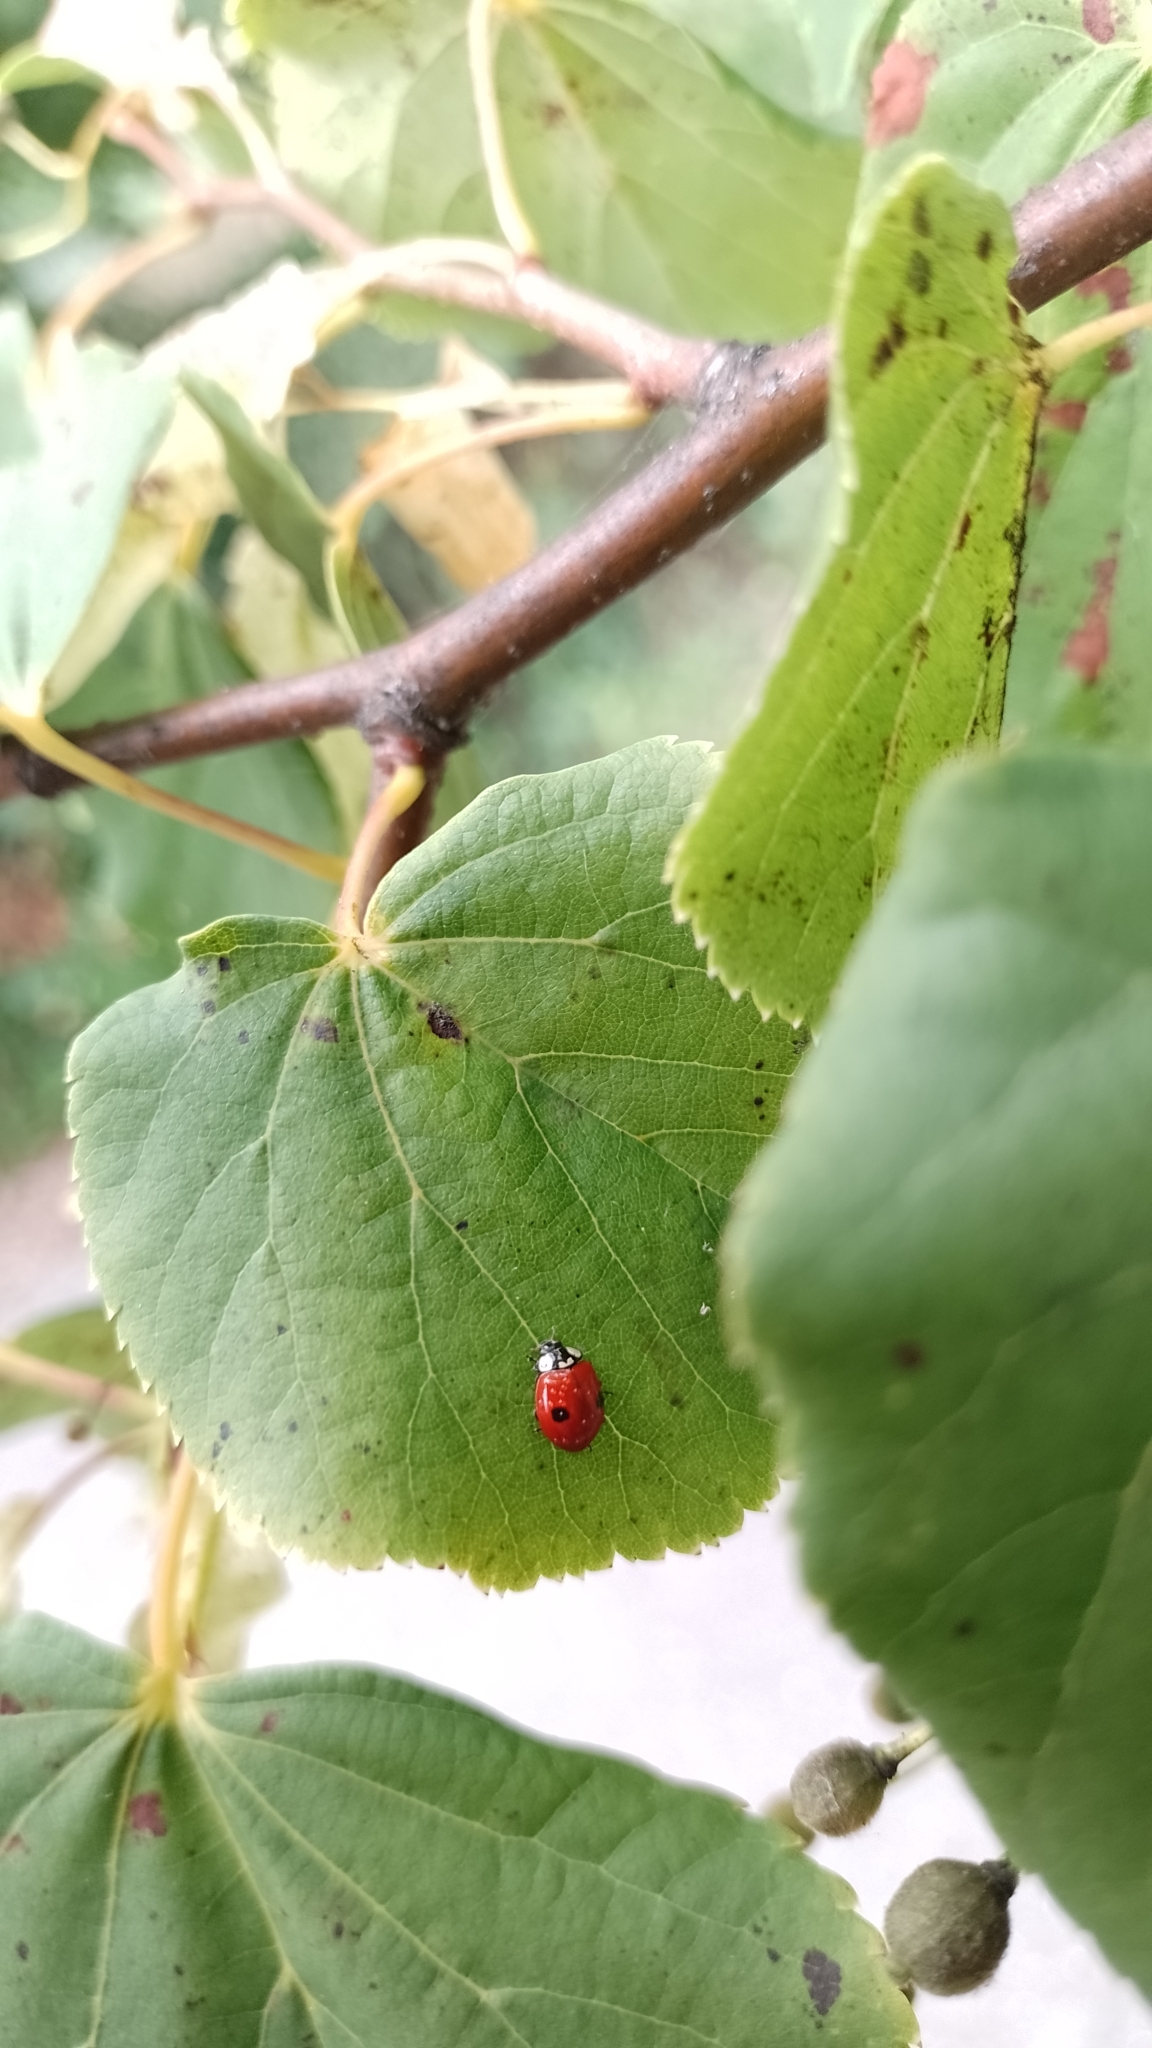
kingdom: Animalia
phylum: Arthropoda
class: Insecta
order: Coleoptera
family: Coccinellidae
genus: Adalia
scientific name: Adalia bipunctata
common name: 2-spot ladybird
